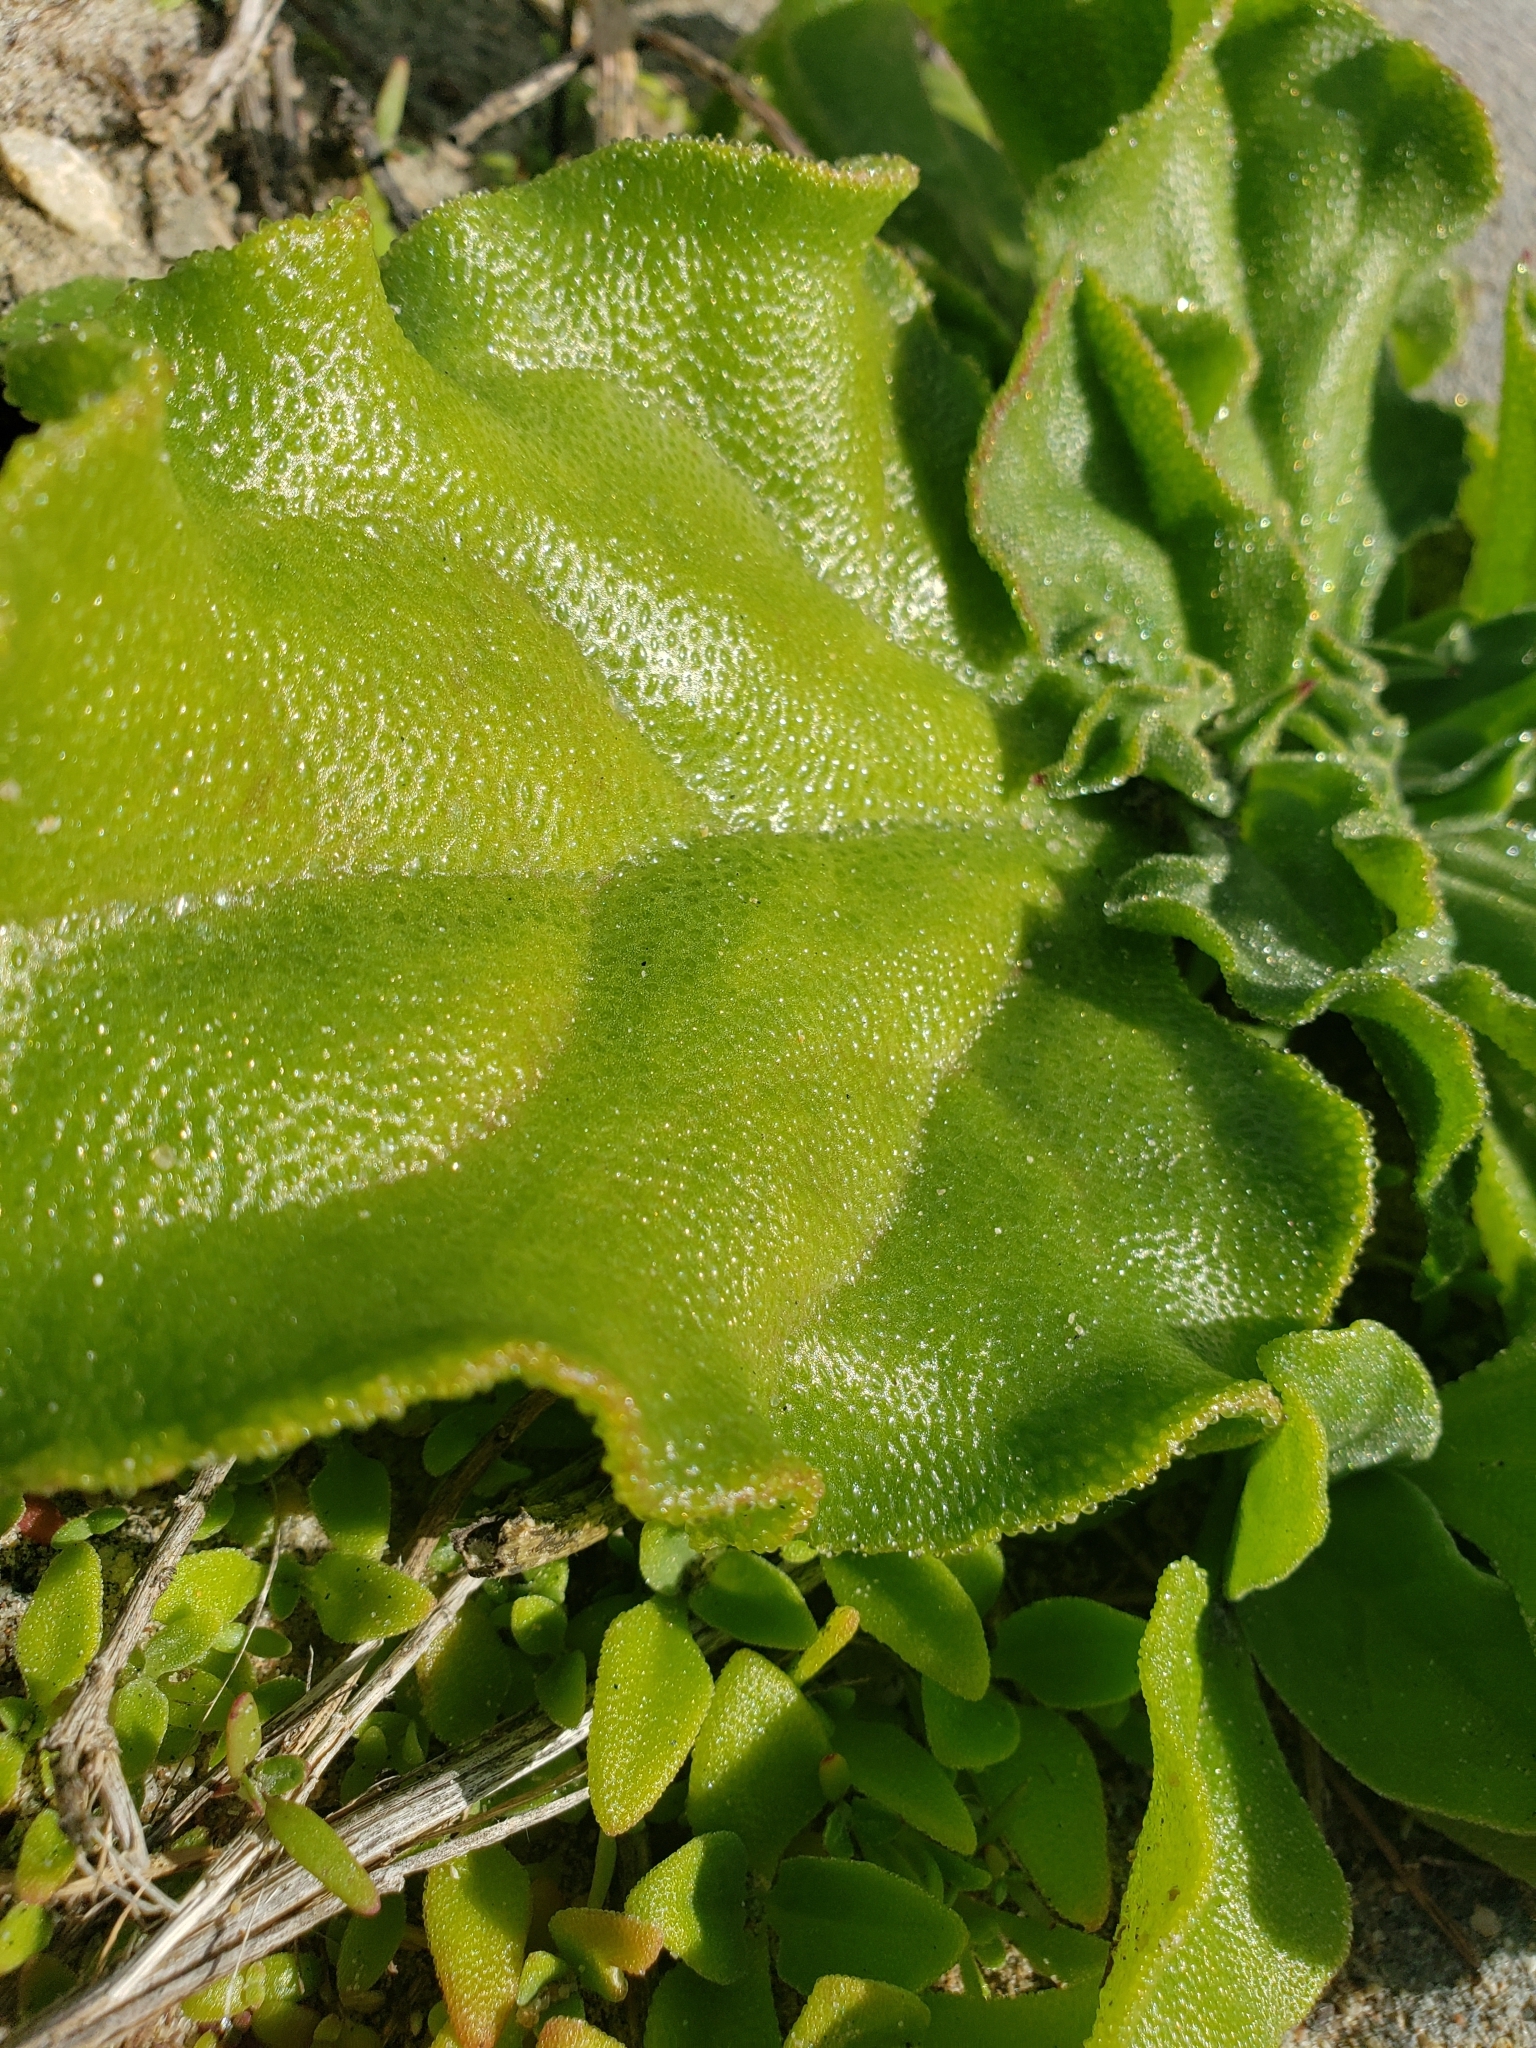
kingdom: Plantae
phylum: Tracheophyta
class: Magnoliopsida
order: Caryophyllales
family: Aizoaceae
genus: Mesembryanthemum
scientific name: Mesembryanthemum crystallinum
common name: Common iceplant
